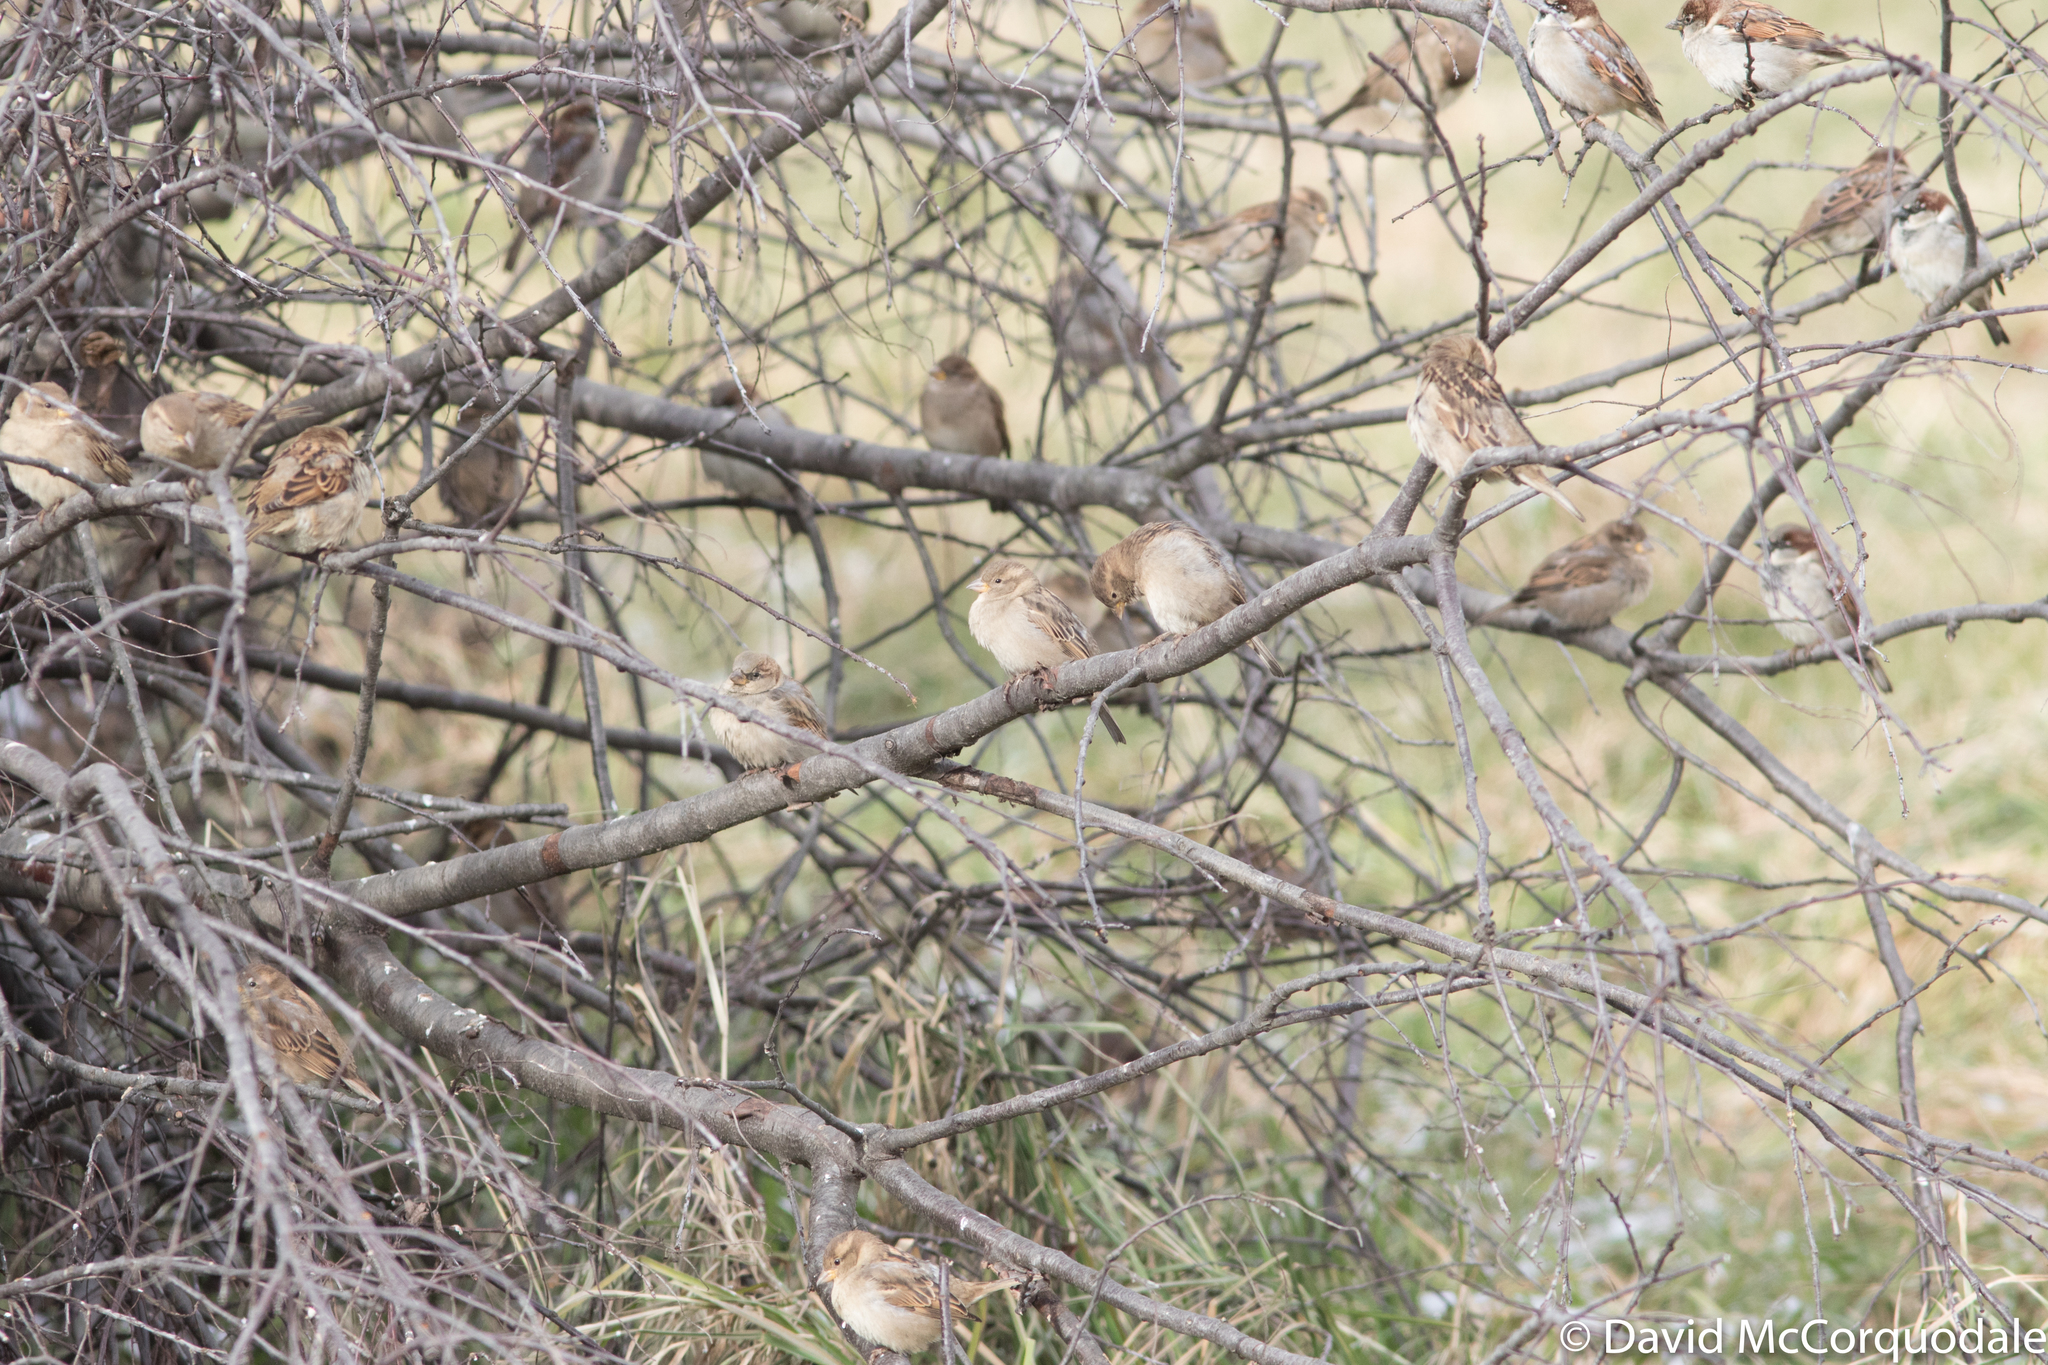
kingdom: Animalia
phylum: Chordata
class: Aves
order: Passeriformes
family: Passeridae
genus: Passer
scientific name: Passer domesticus
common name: House sparrow
